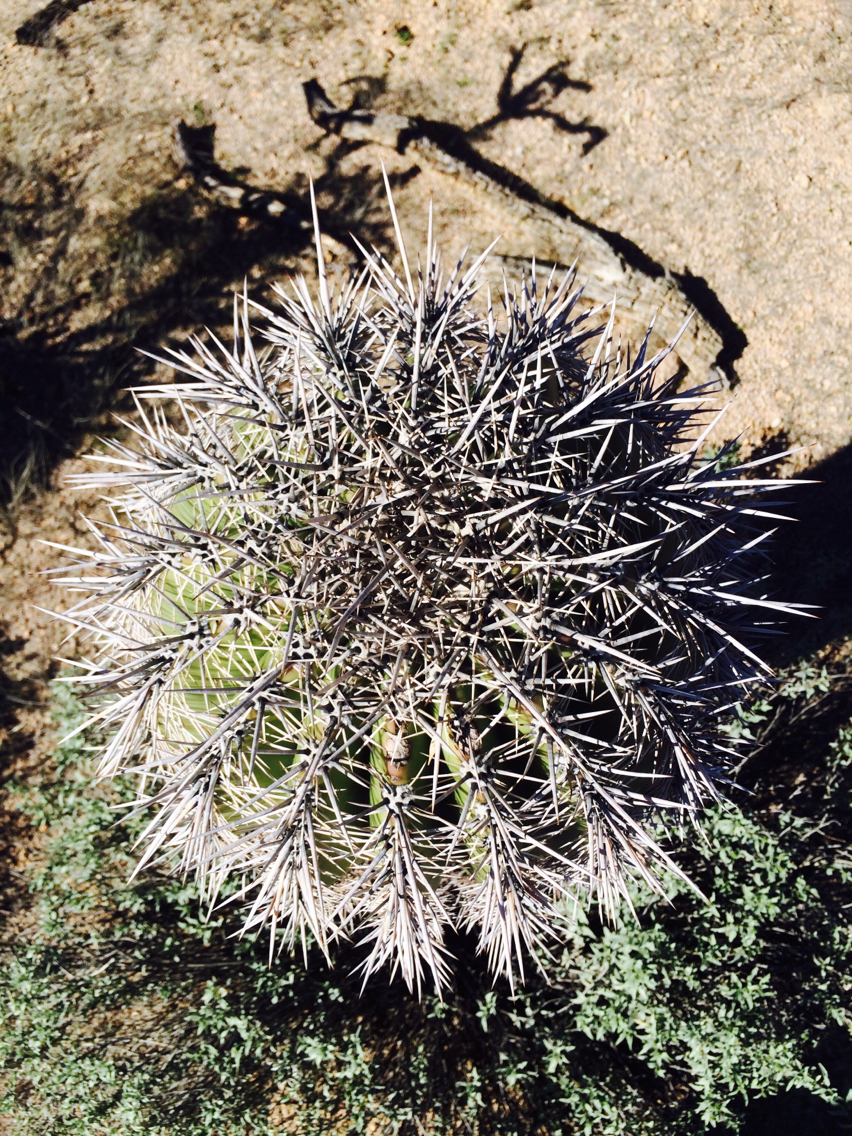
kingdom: Plantae
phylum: Tracheophyta
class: Magnoliopsida
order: Caryophyllales
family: Cactaceae
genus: Carnegiea
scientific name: Carnegiea gigantea
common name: Saguaro
